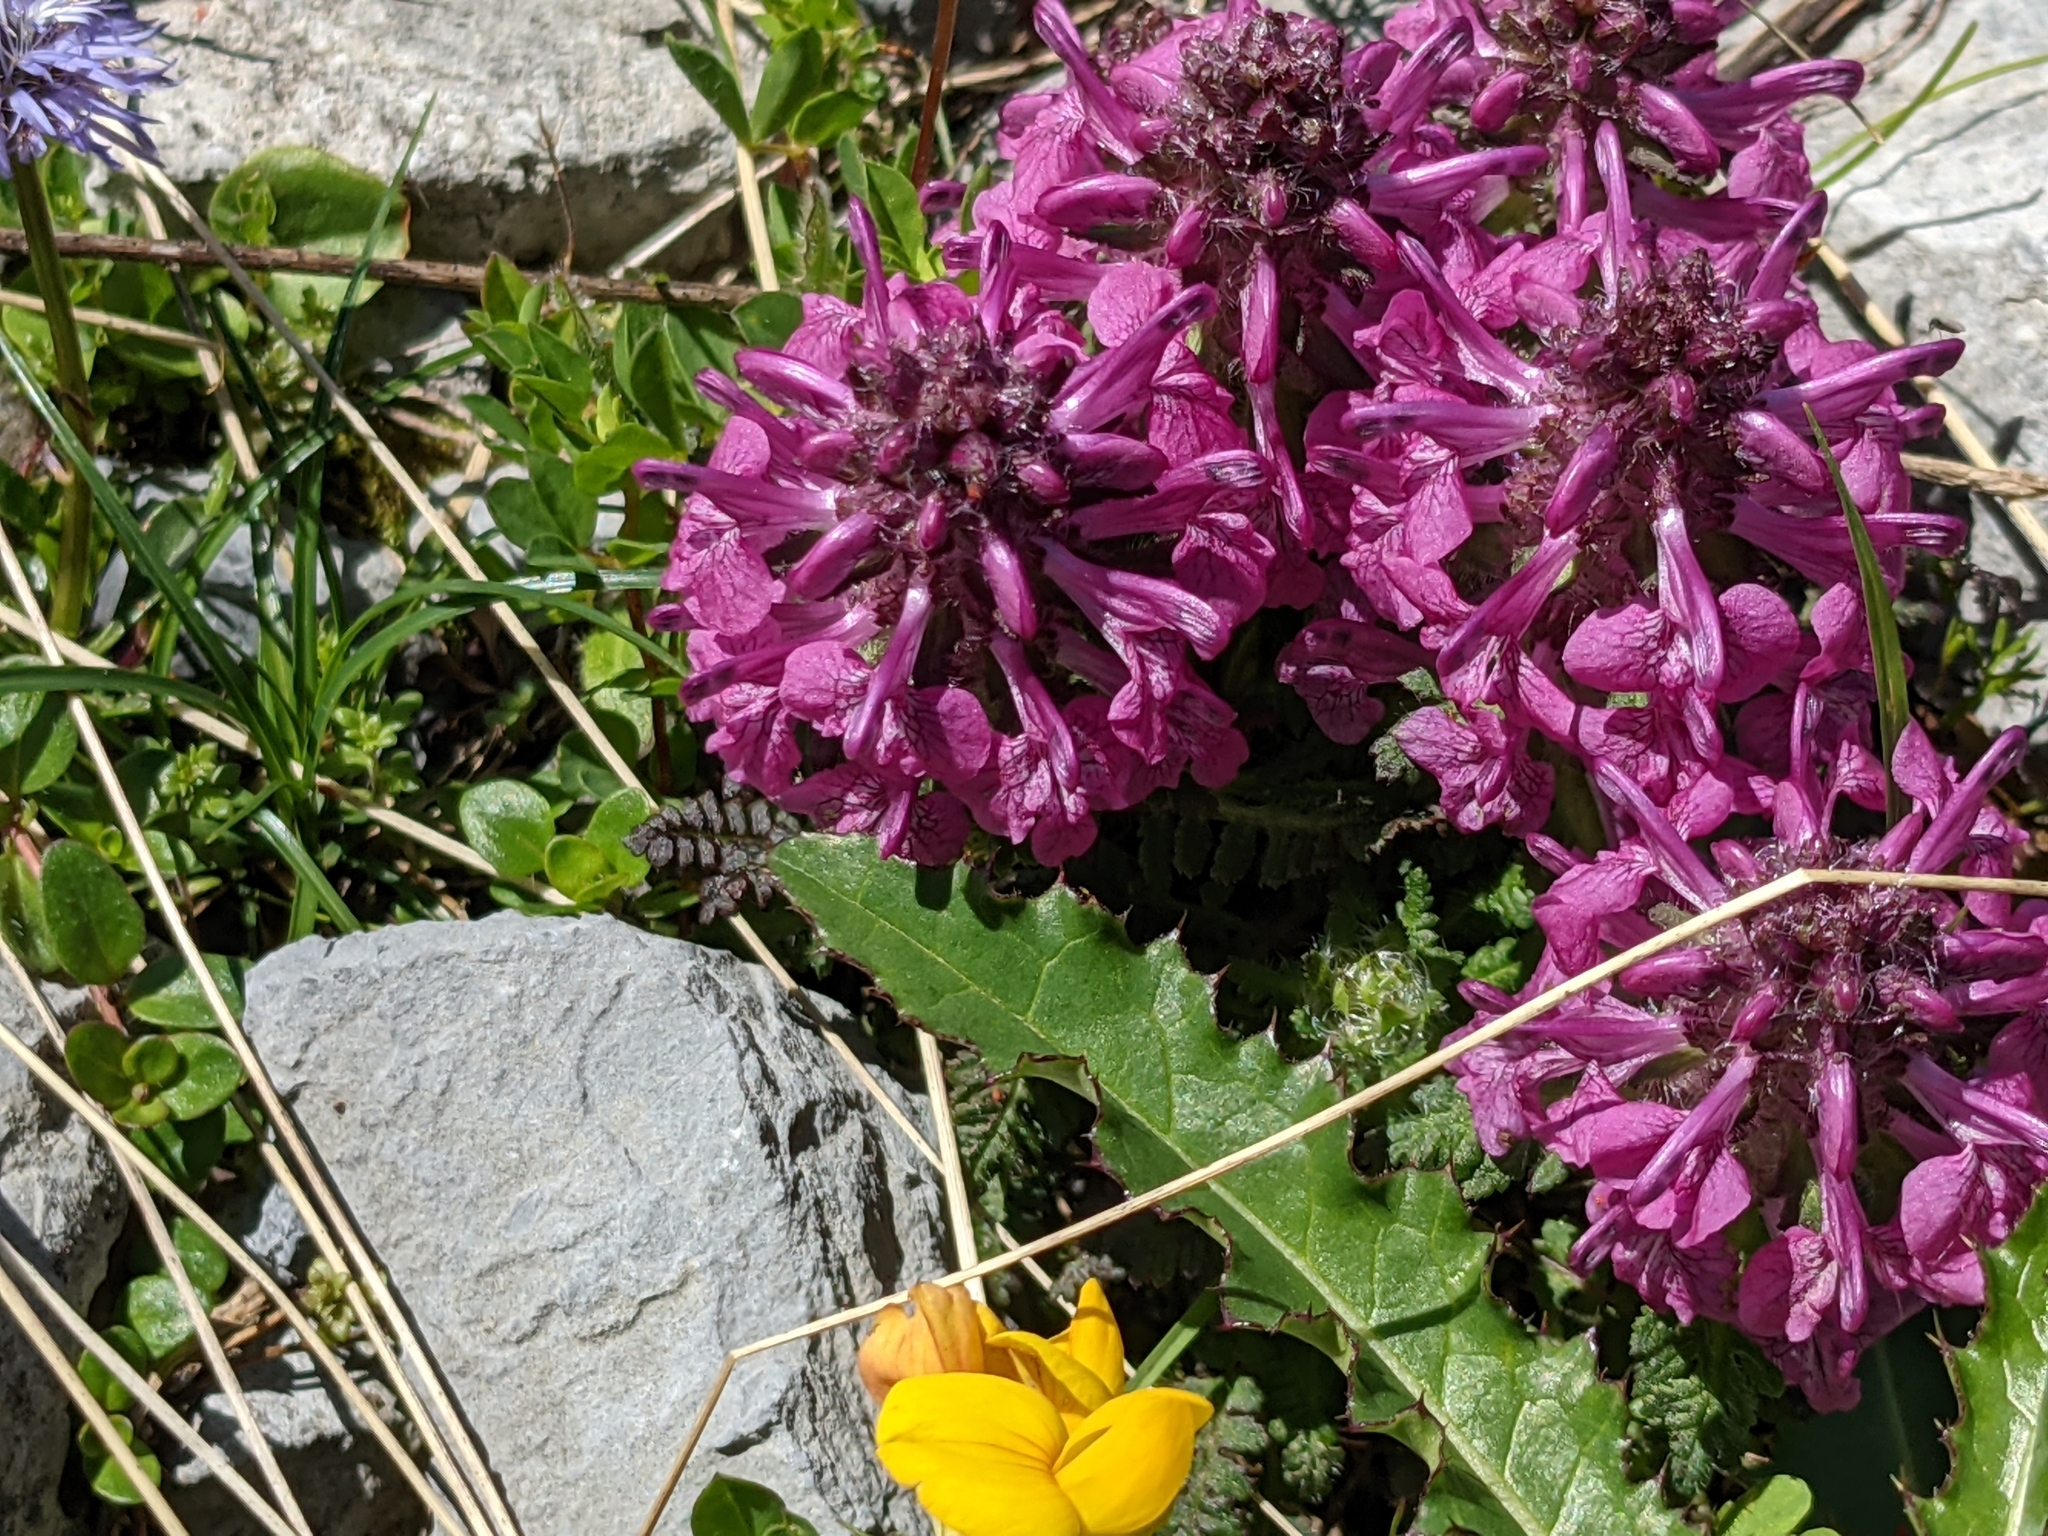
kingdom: Plantae
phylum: Tracheophyta
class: Magnoliopsida
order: Lamiales
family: Orobanchaceae
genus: Pedicularis
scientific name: Pedicularis verticillata
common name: Whorled lousewort
